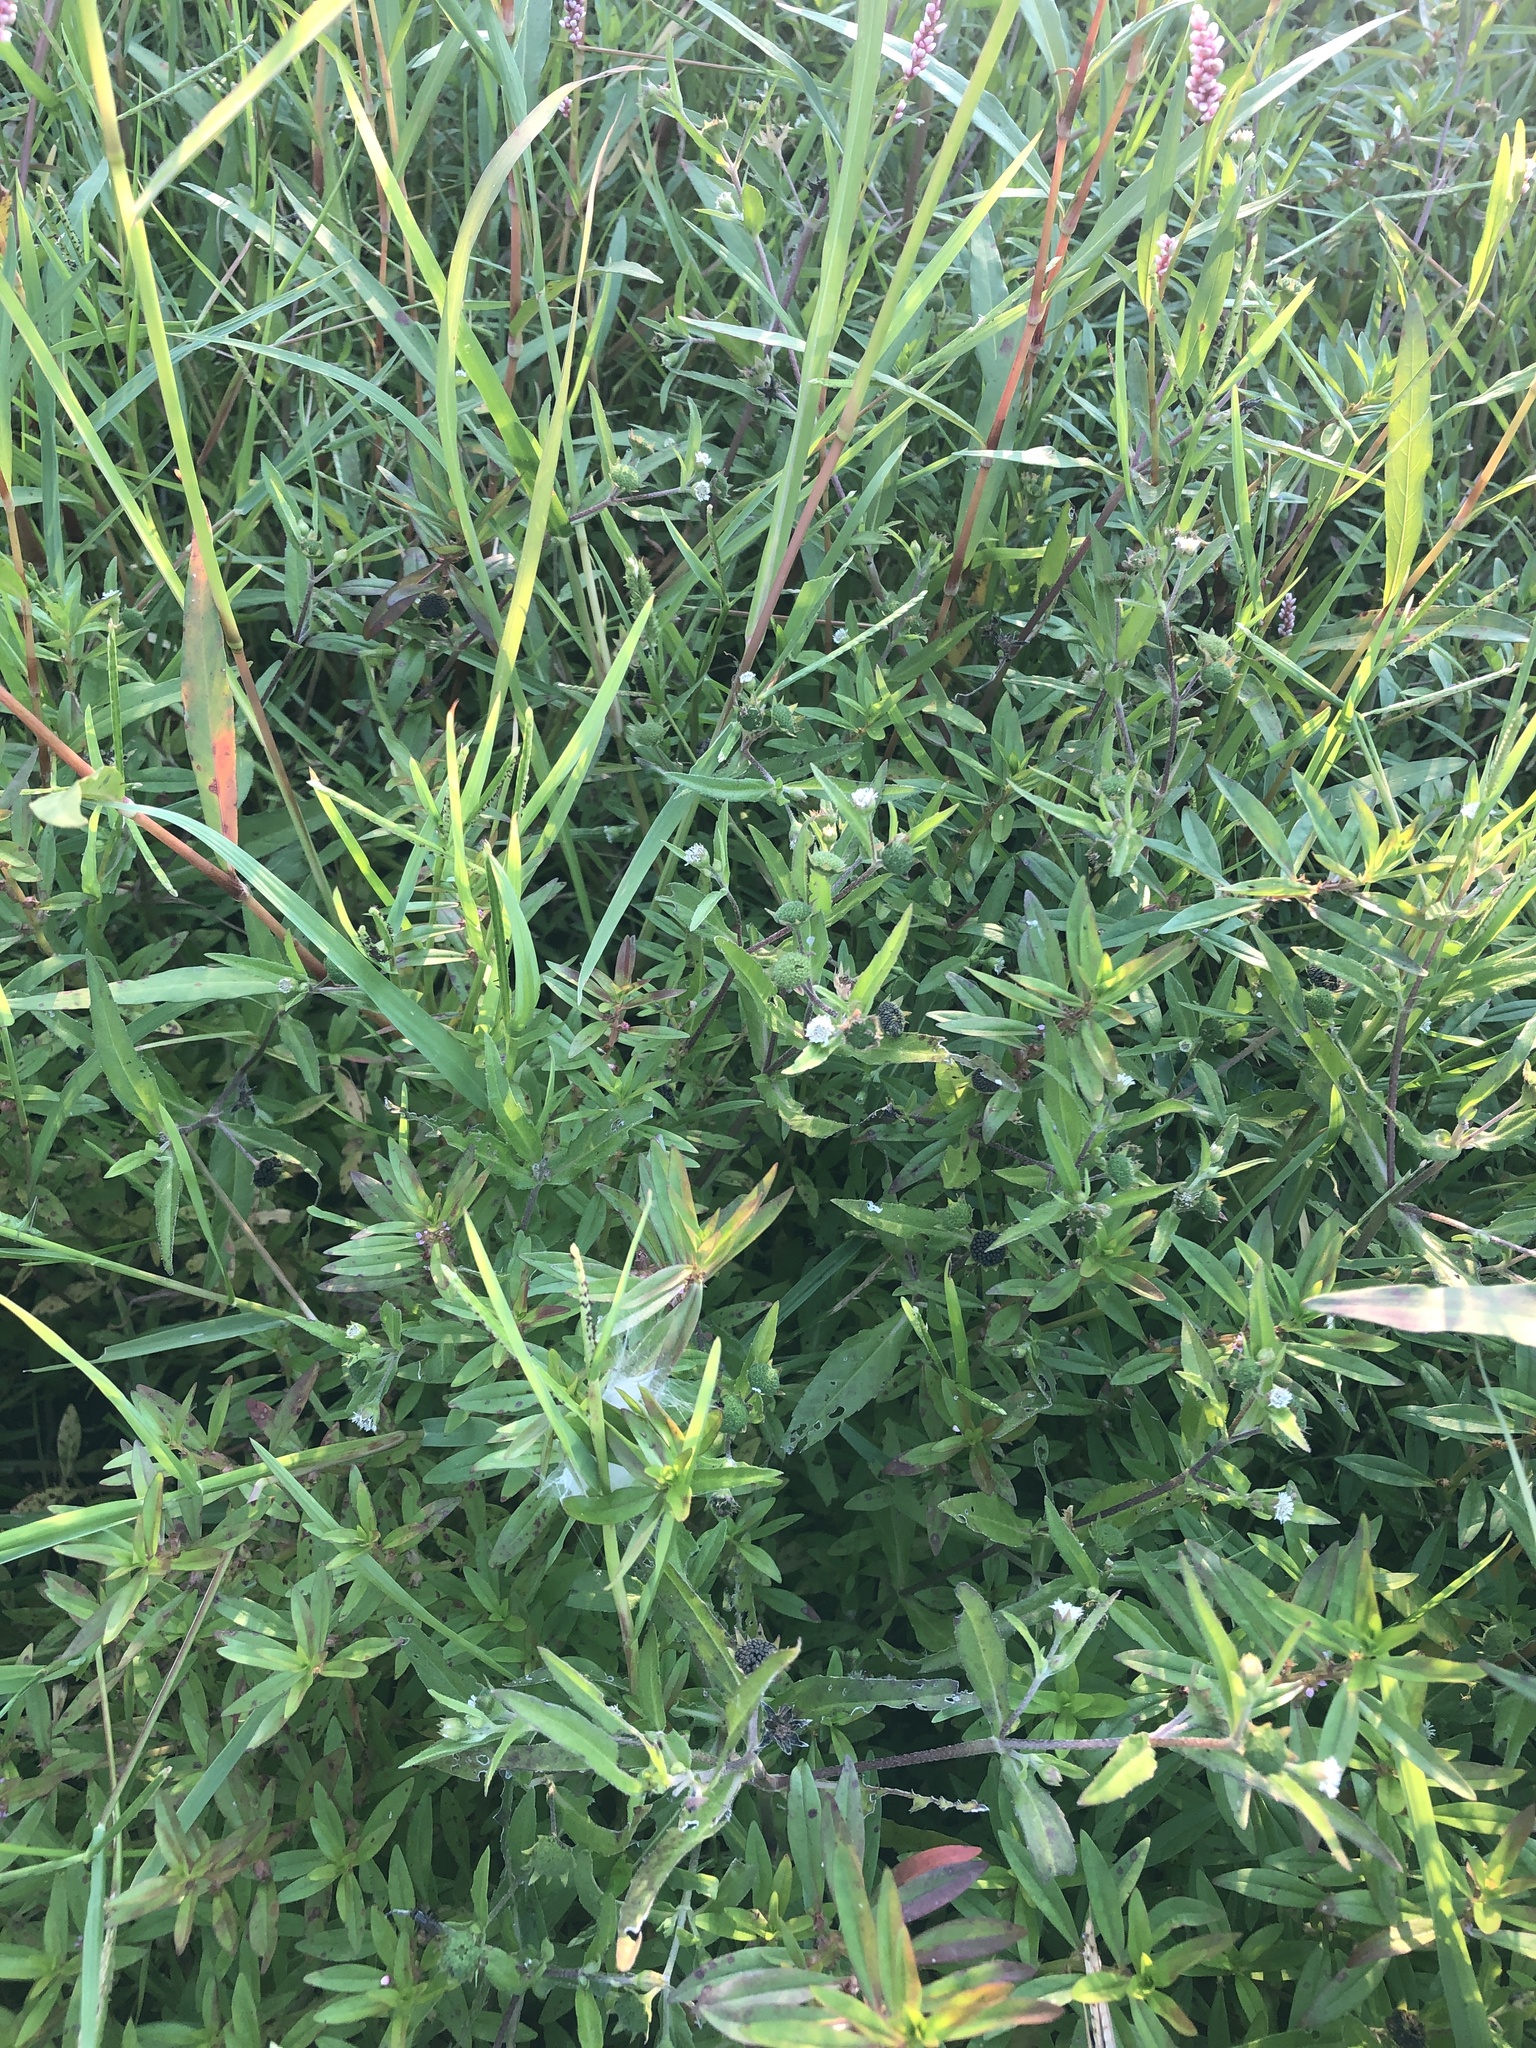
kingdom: Plantae
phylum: Tracheophyta
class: Magnoliopsida
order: Asterales
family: Asteraceae
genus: Eclipta
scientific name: Eclipta prostrata
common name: False daisy
